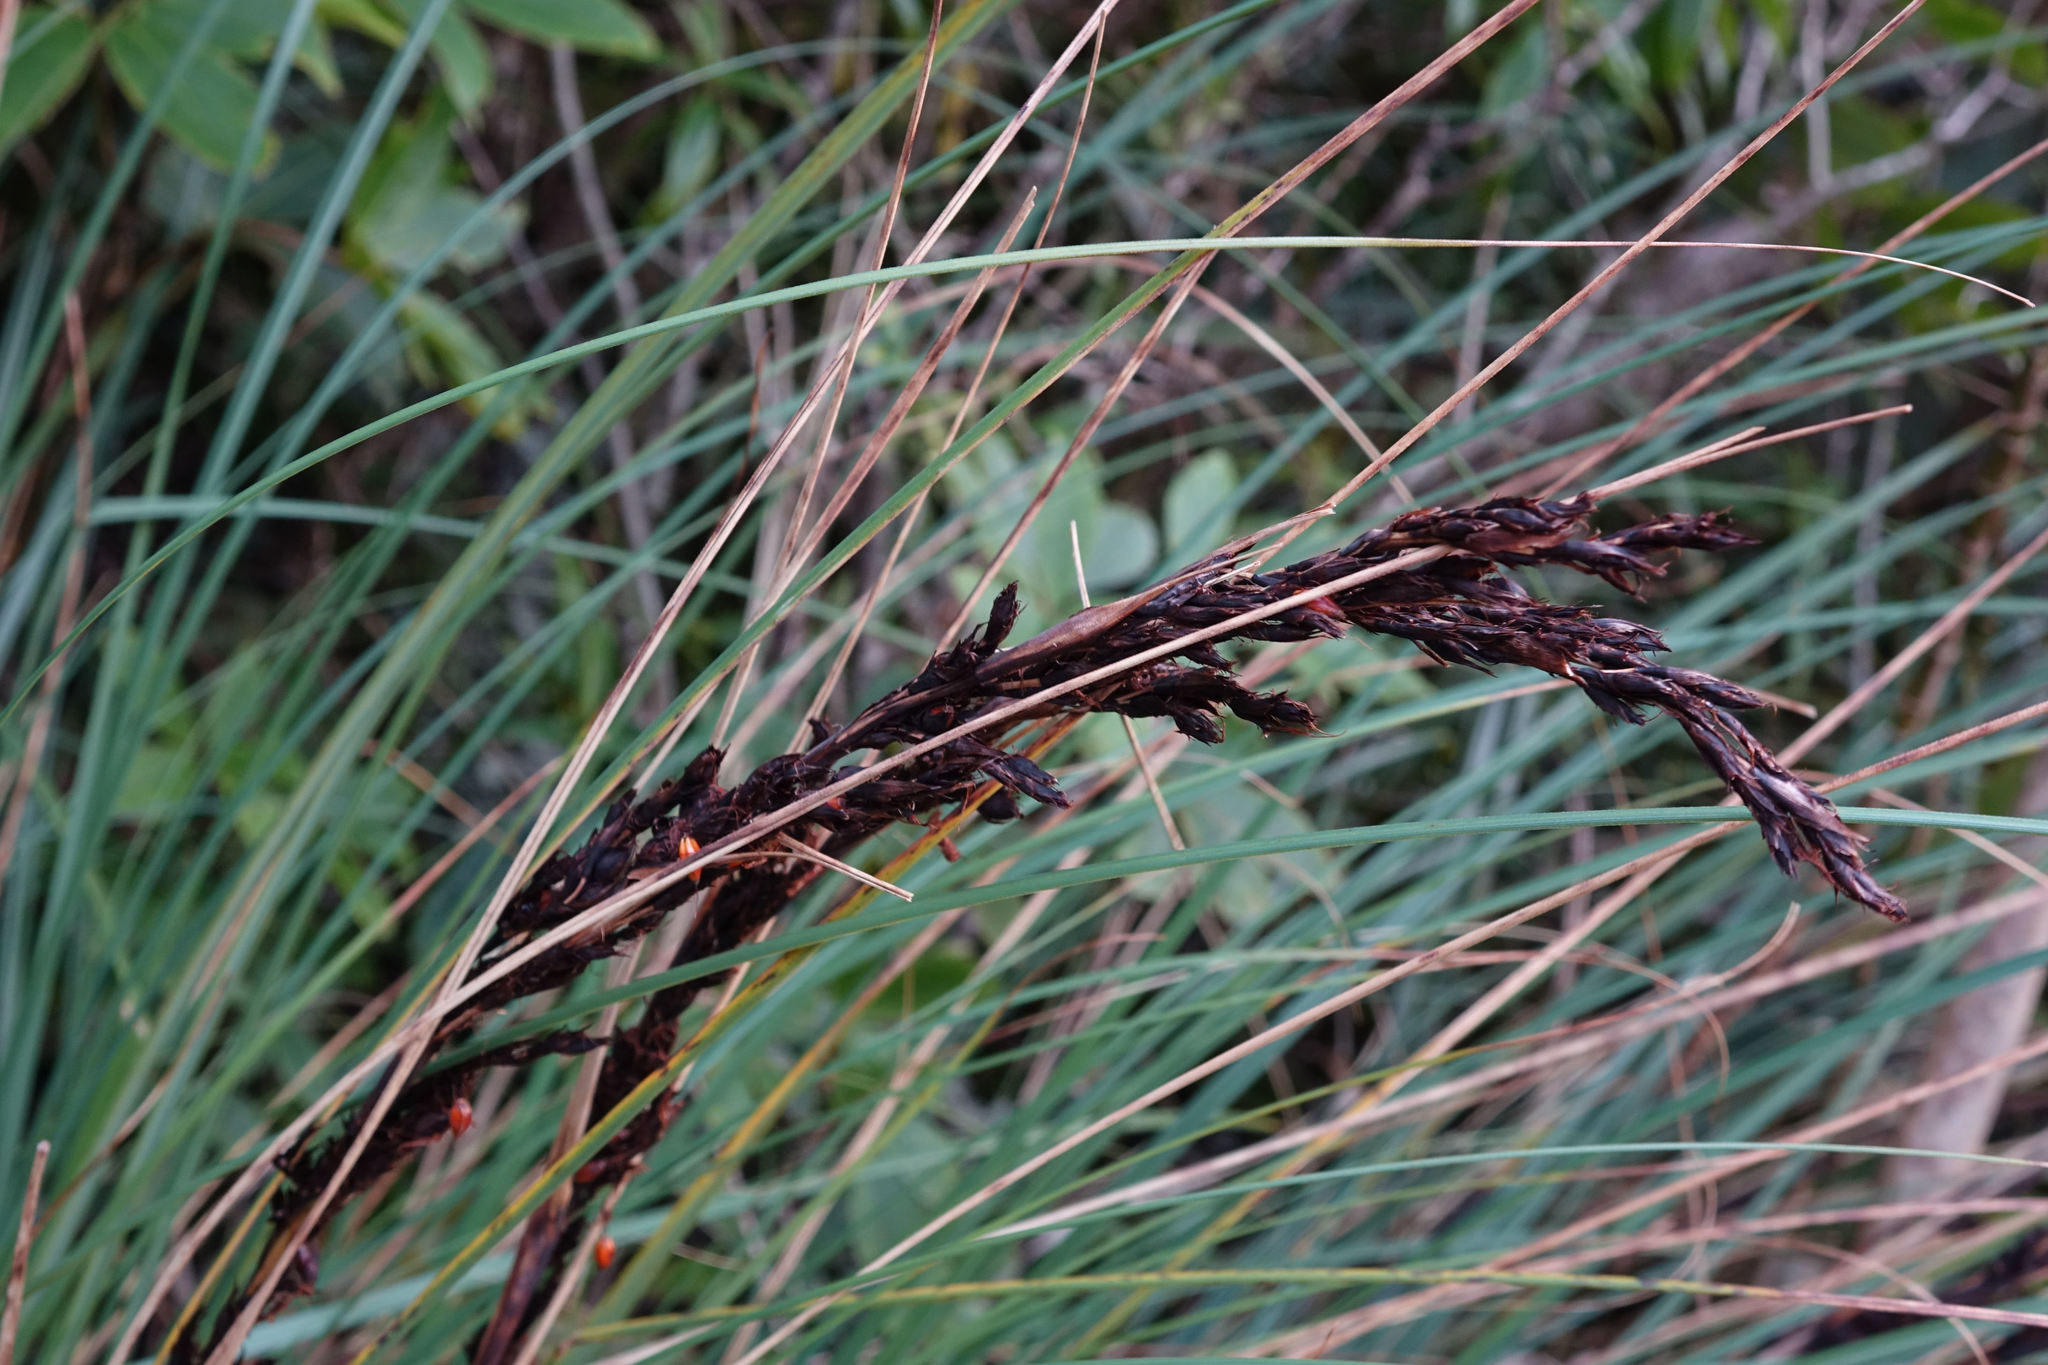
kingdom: Plantae
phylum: Tracheophyta
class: Liliopsida
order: Poales
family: Cyperaceae
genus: Gahnia
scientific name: Gahnia procera
